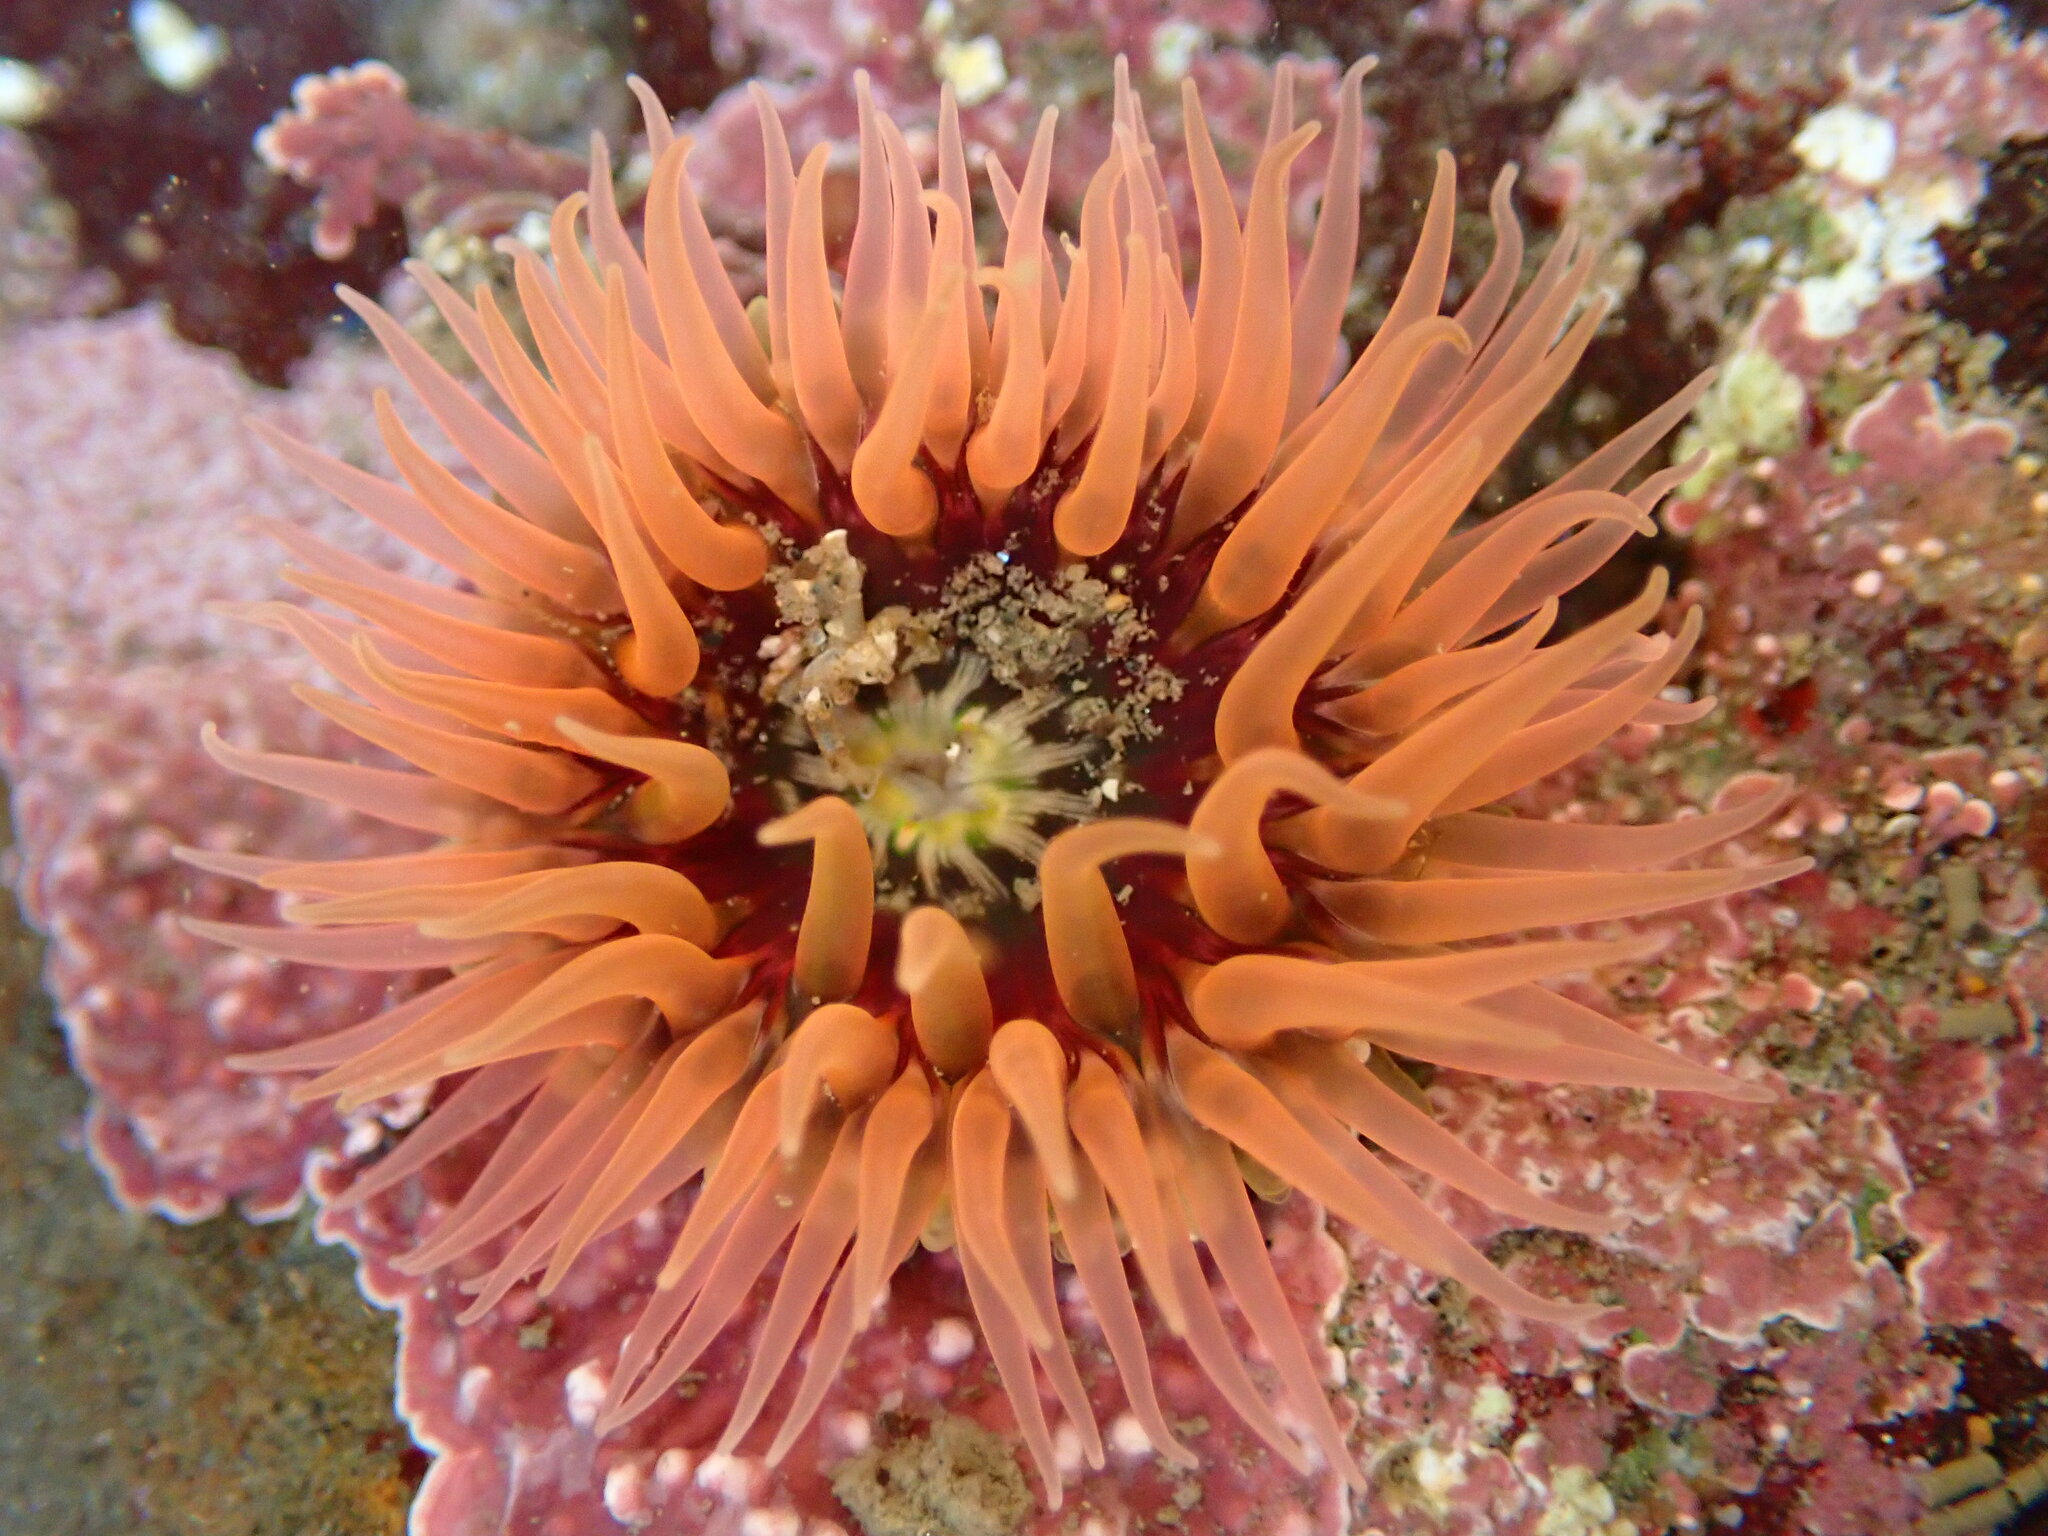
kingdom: Animalia
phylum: Cnidaria
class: Anthozoa
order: Actiniaria
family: Actiniidae
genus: Anthopleura
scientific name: Anthopleura artemisia
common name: Buried sea anemone
